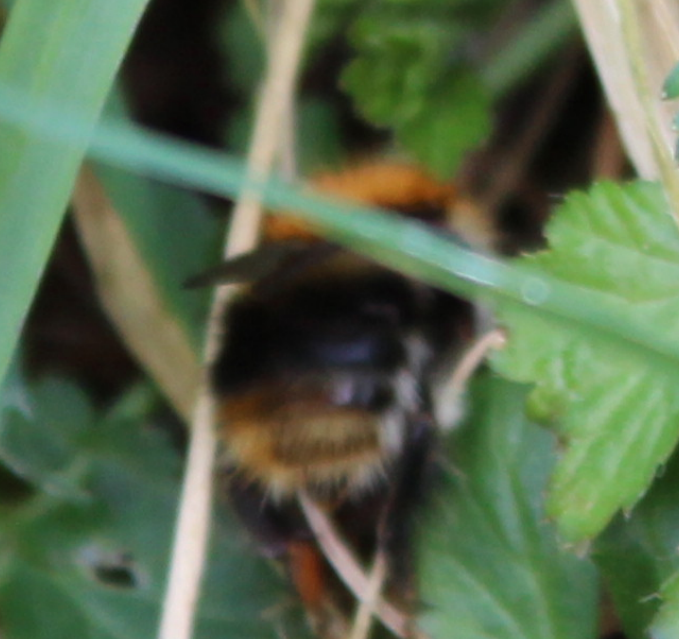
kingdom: Animalia
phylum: Arthropoda
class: Insecta
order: Hymenoptera
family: Apidae
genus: Bombus
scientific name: Bombus pascuorum
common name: Common carder bee
